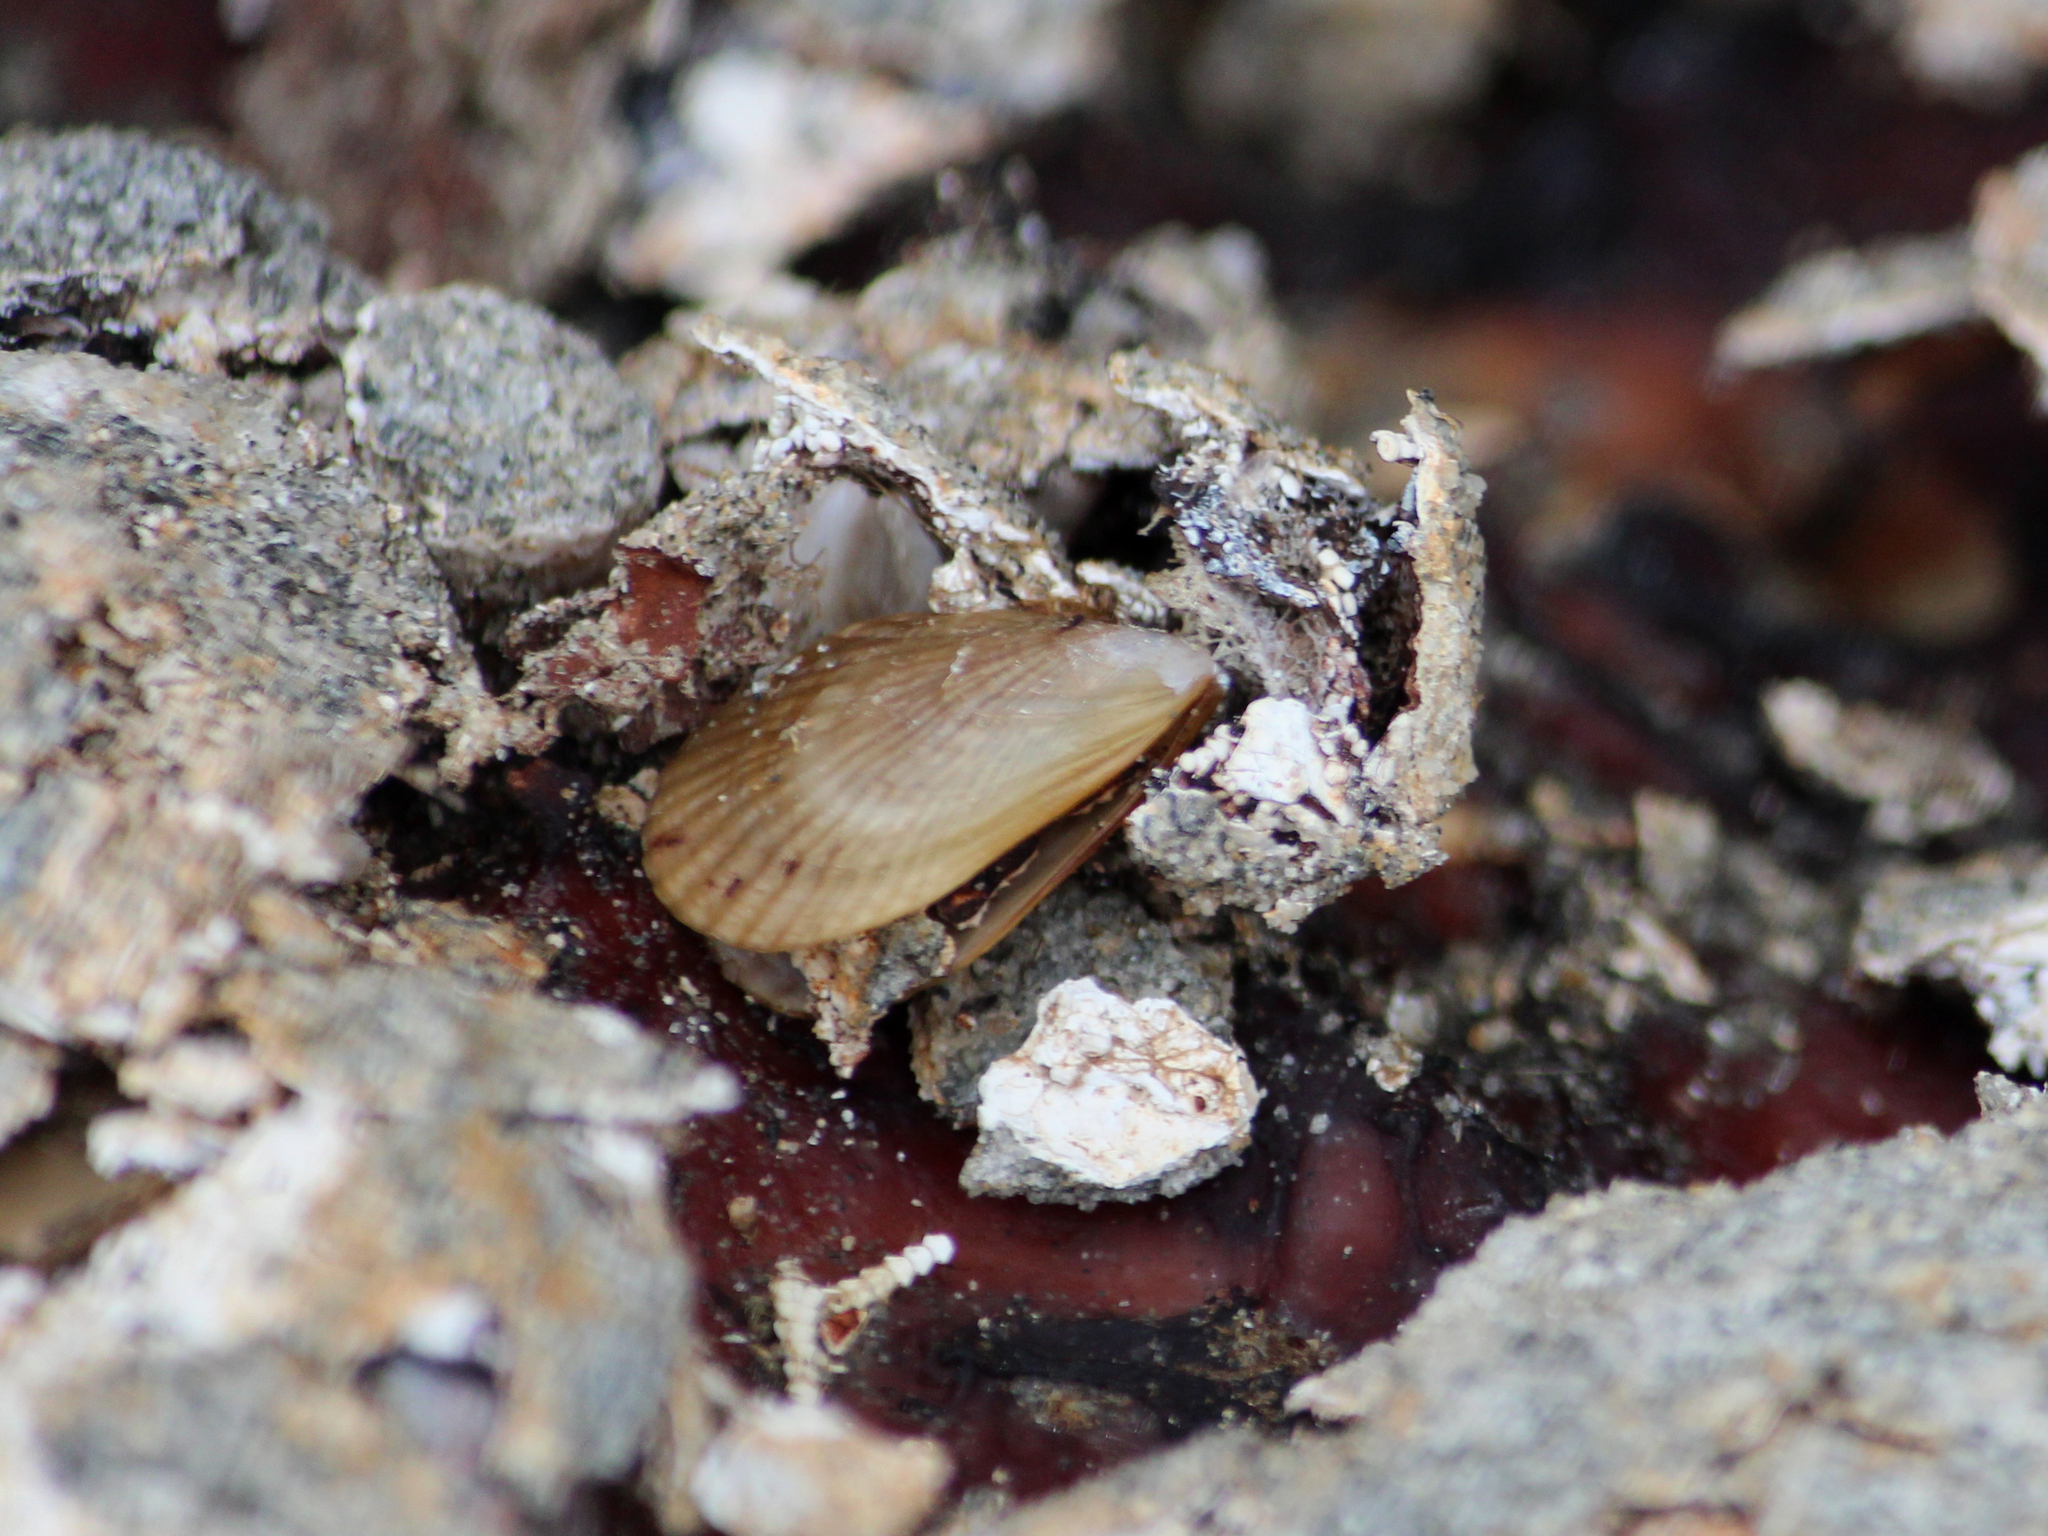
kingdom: Animalia
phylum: Mollusca
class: Bivalvia
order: Mytilida
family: Mytilidae
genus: Aulacomya
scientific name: Aulacomya maoriana
